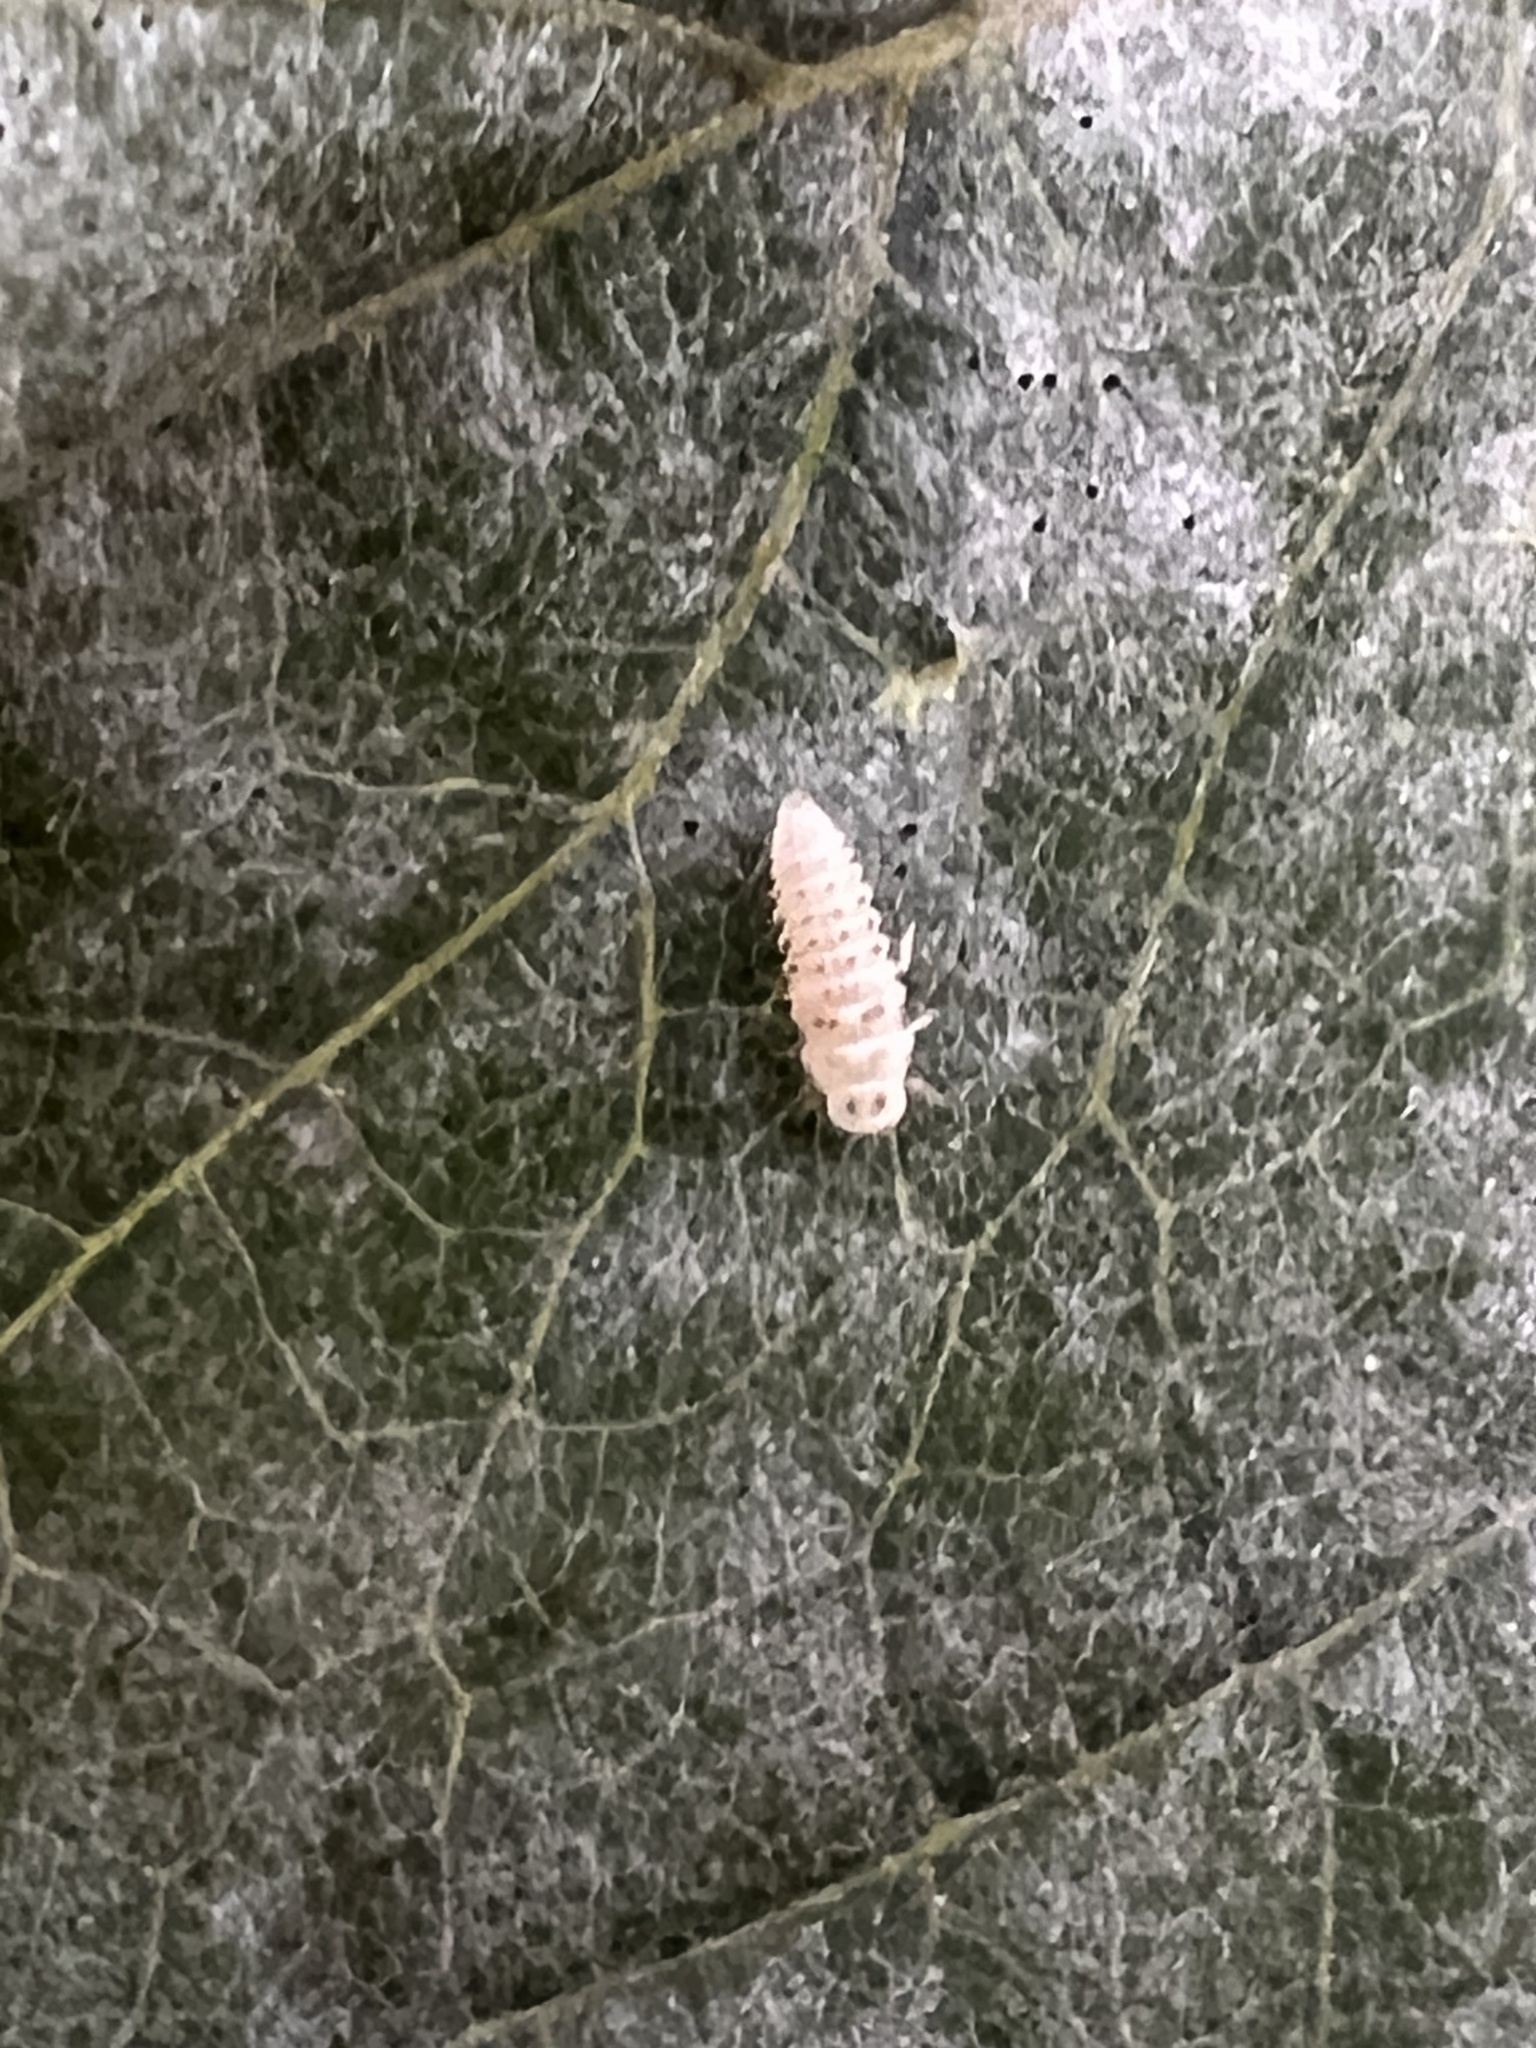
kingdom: Animalia
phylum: Arthropoda
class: Insecta
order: Coleoptera
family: Coccinellidae
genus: Psyllobora
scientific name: Psyllobora vigintimaculata
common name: Ladybird beetle
